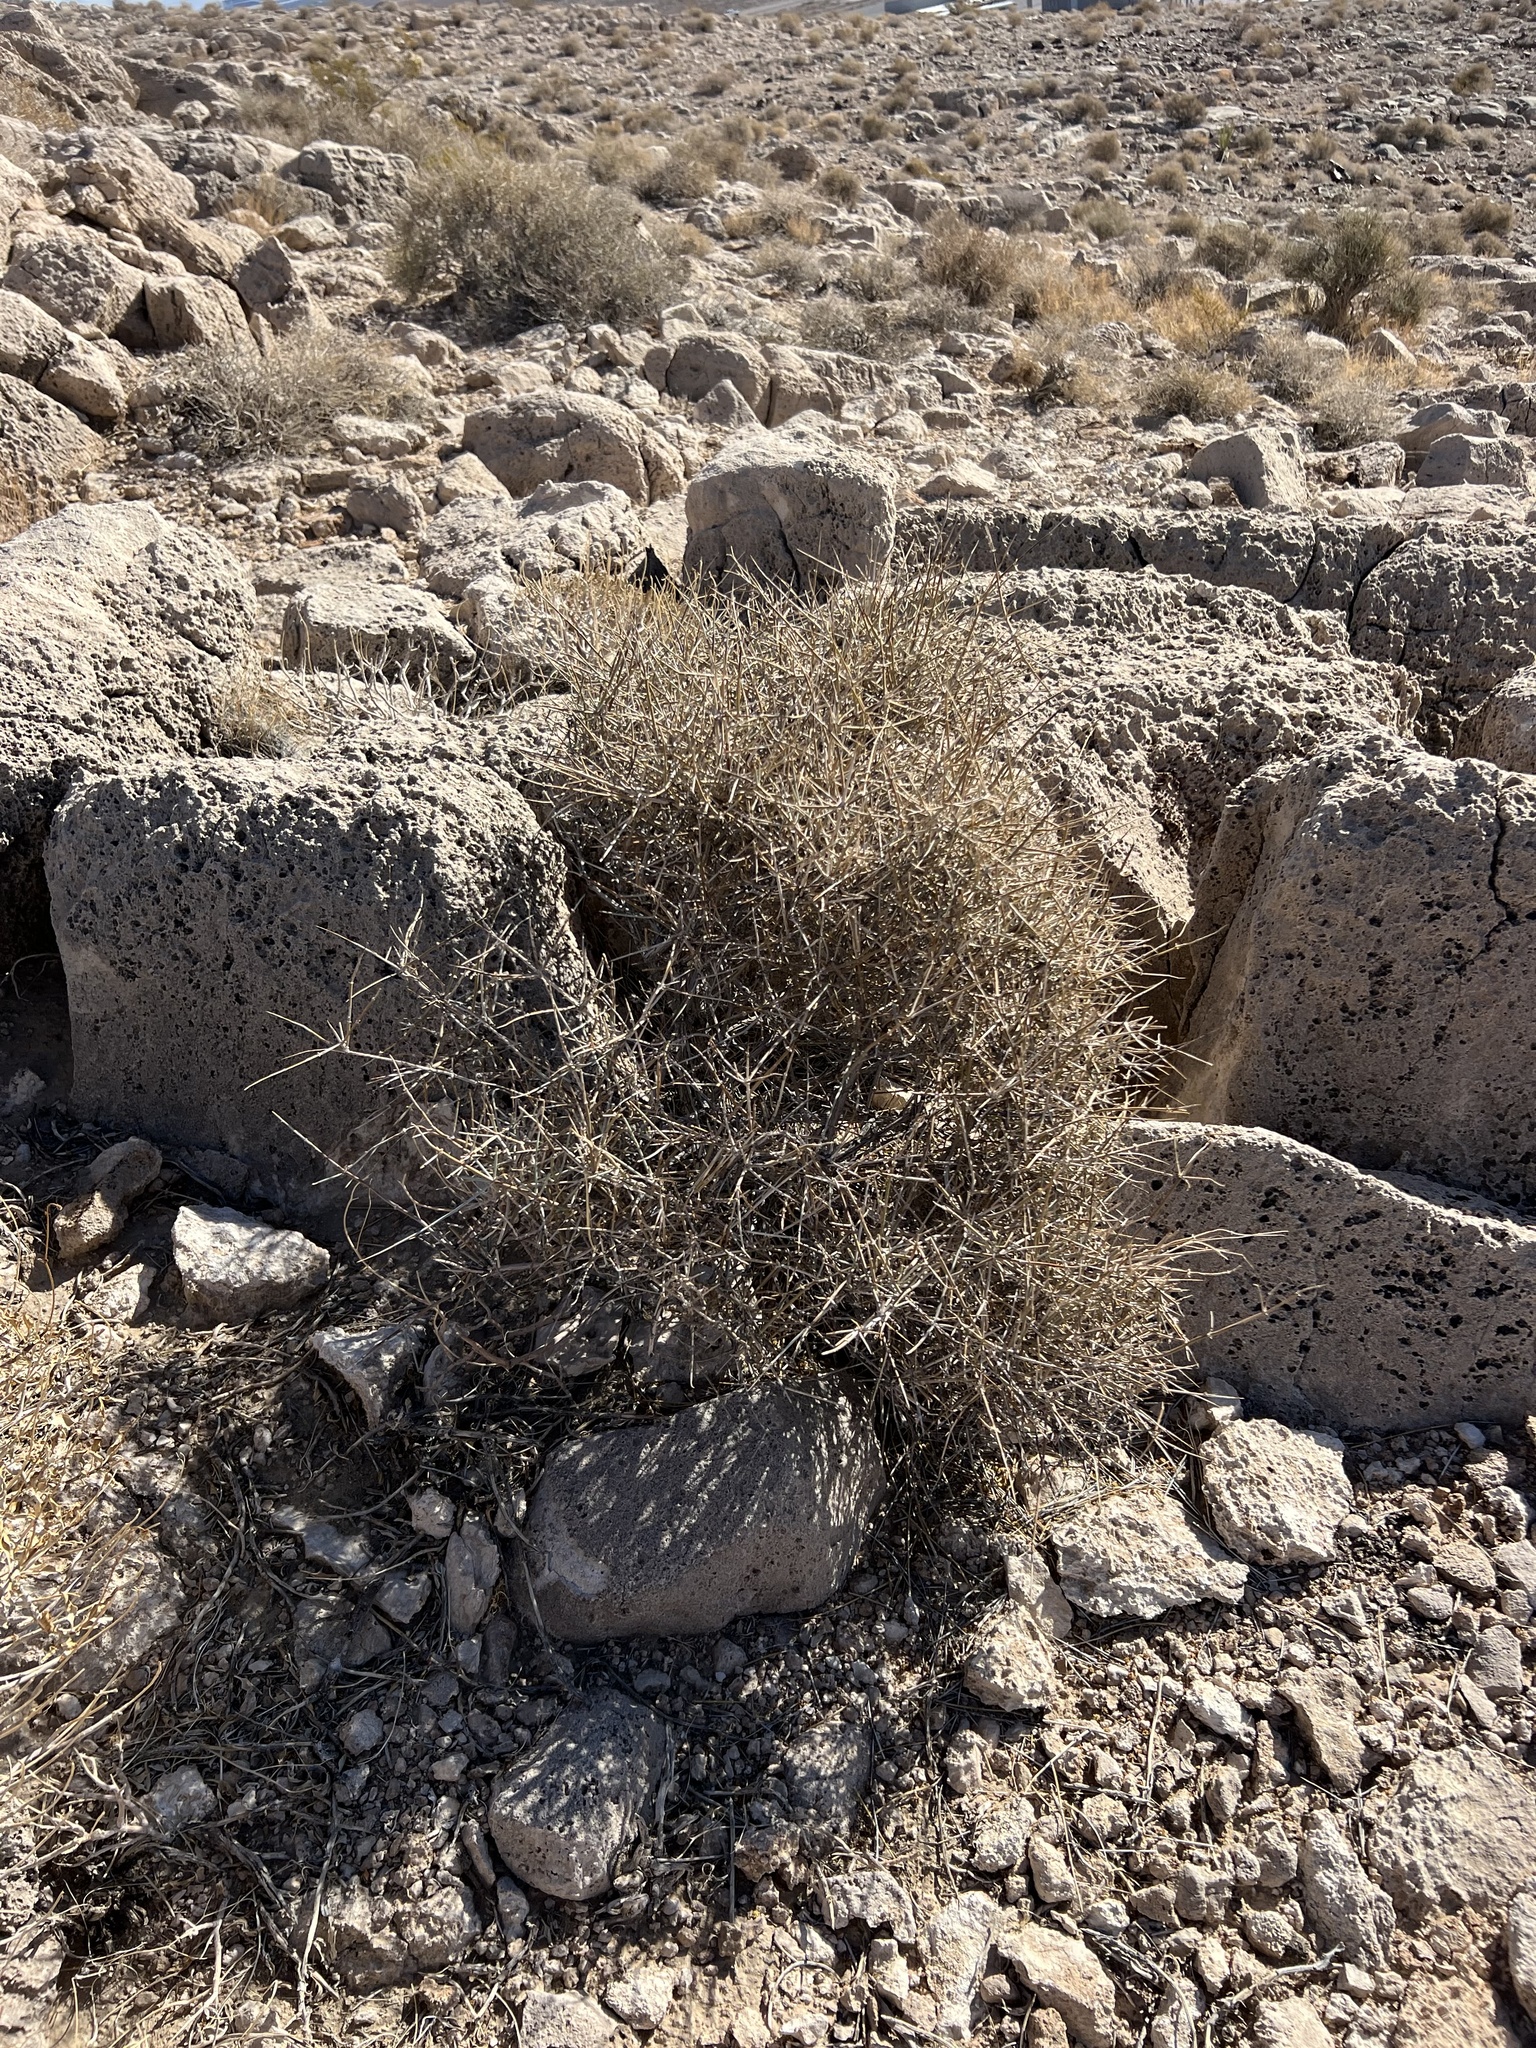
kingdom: Plantae
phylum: Tracheophyta
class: Gnetopsida
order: Ephedrales
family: Ephedraceae
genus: Ephedra
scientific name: Ephedra nevadensis
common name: Gray ephedra
